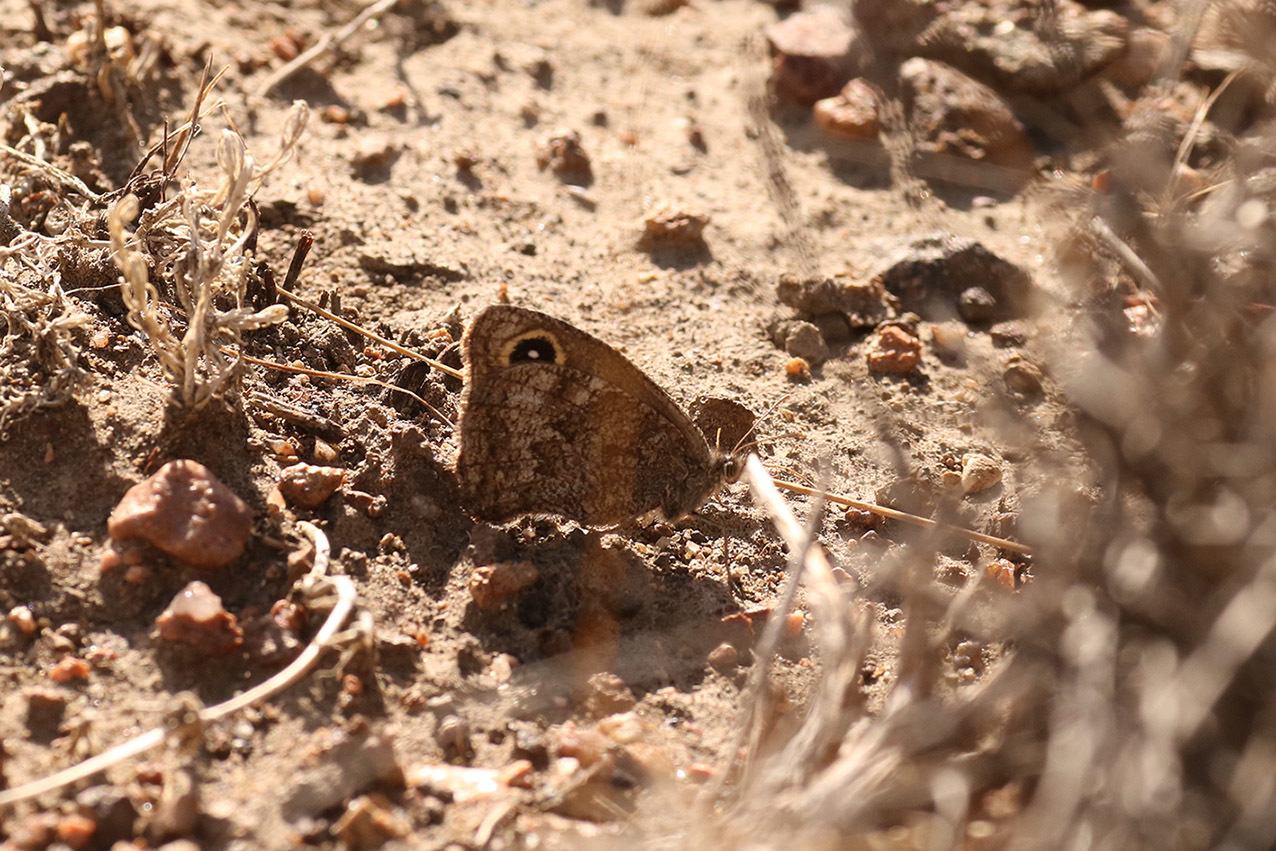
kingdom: Animalia
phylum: Arthropoda
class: Insecta
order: Lepidoptera
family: Nymphalidae
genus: Pampasatyrus
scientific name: Pampasatyrus yacantoensis
